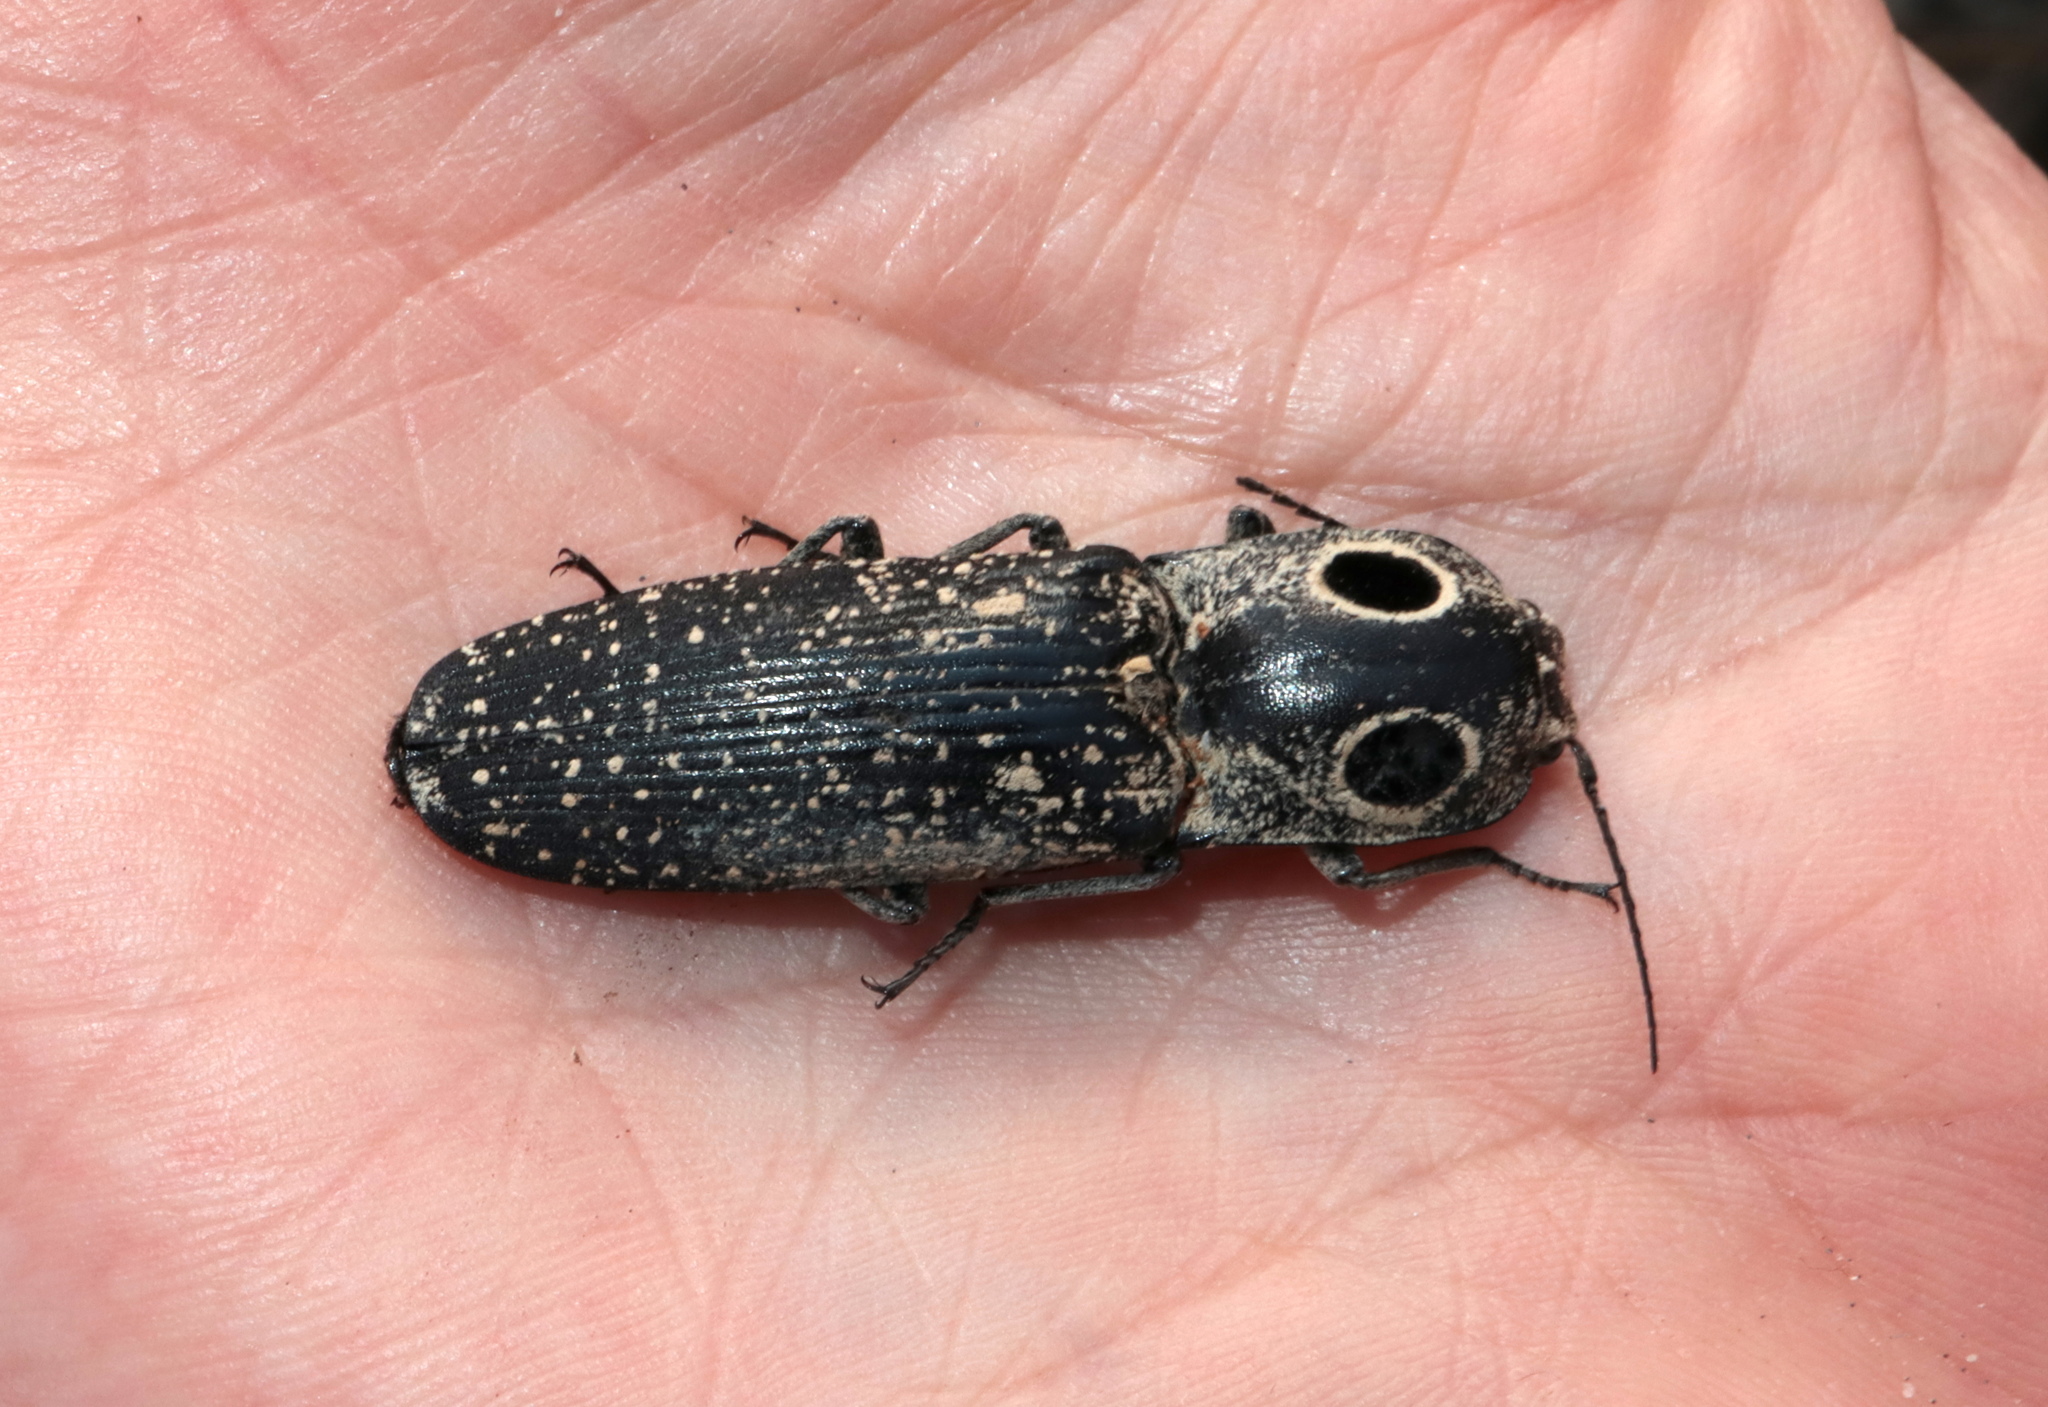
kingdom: Animalia
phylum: Arthropoda
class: Insecta
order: Coleoptera
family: Elateridae
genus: Alaus
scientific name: Alaus oculatus
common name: Eastern eyed click beetle
